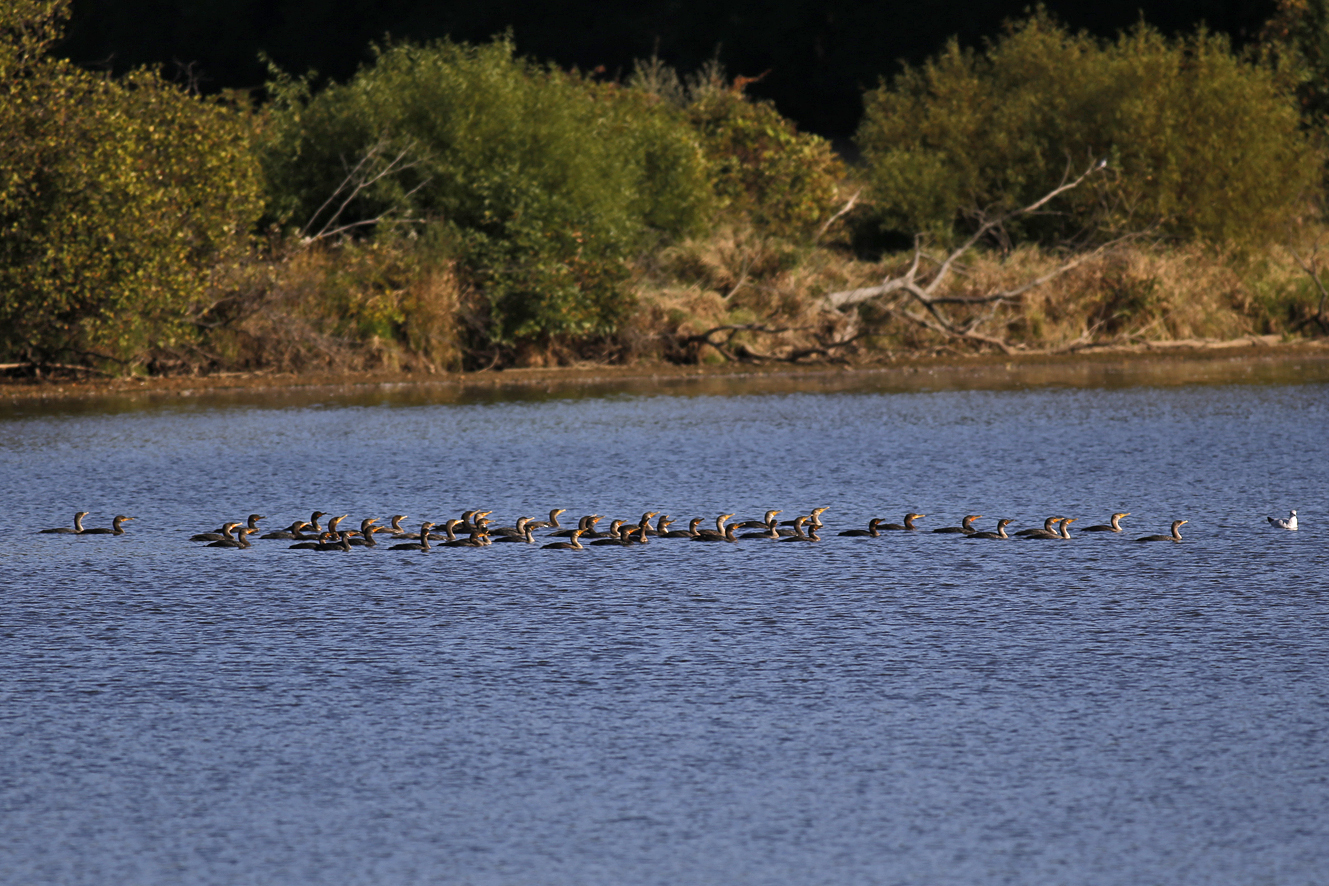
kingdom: Animalia
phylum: Chordata
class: Aves
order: Suliformes
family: Phalacrocoracidae
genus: Phalacrocorax
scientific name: Phalacrocorax auritus
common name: Double-crested cormorant
